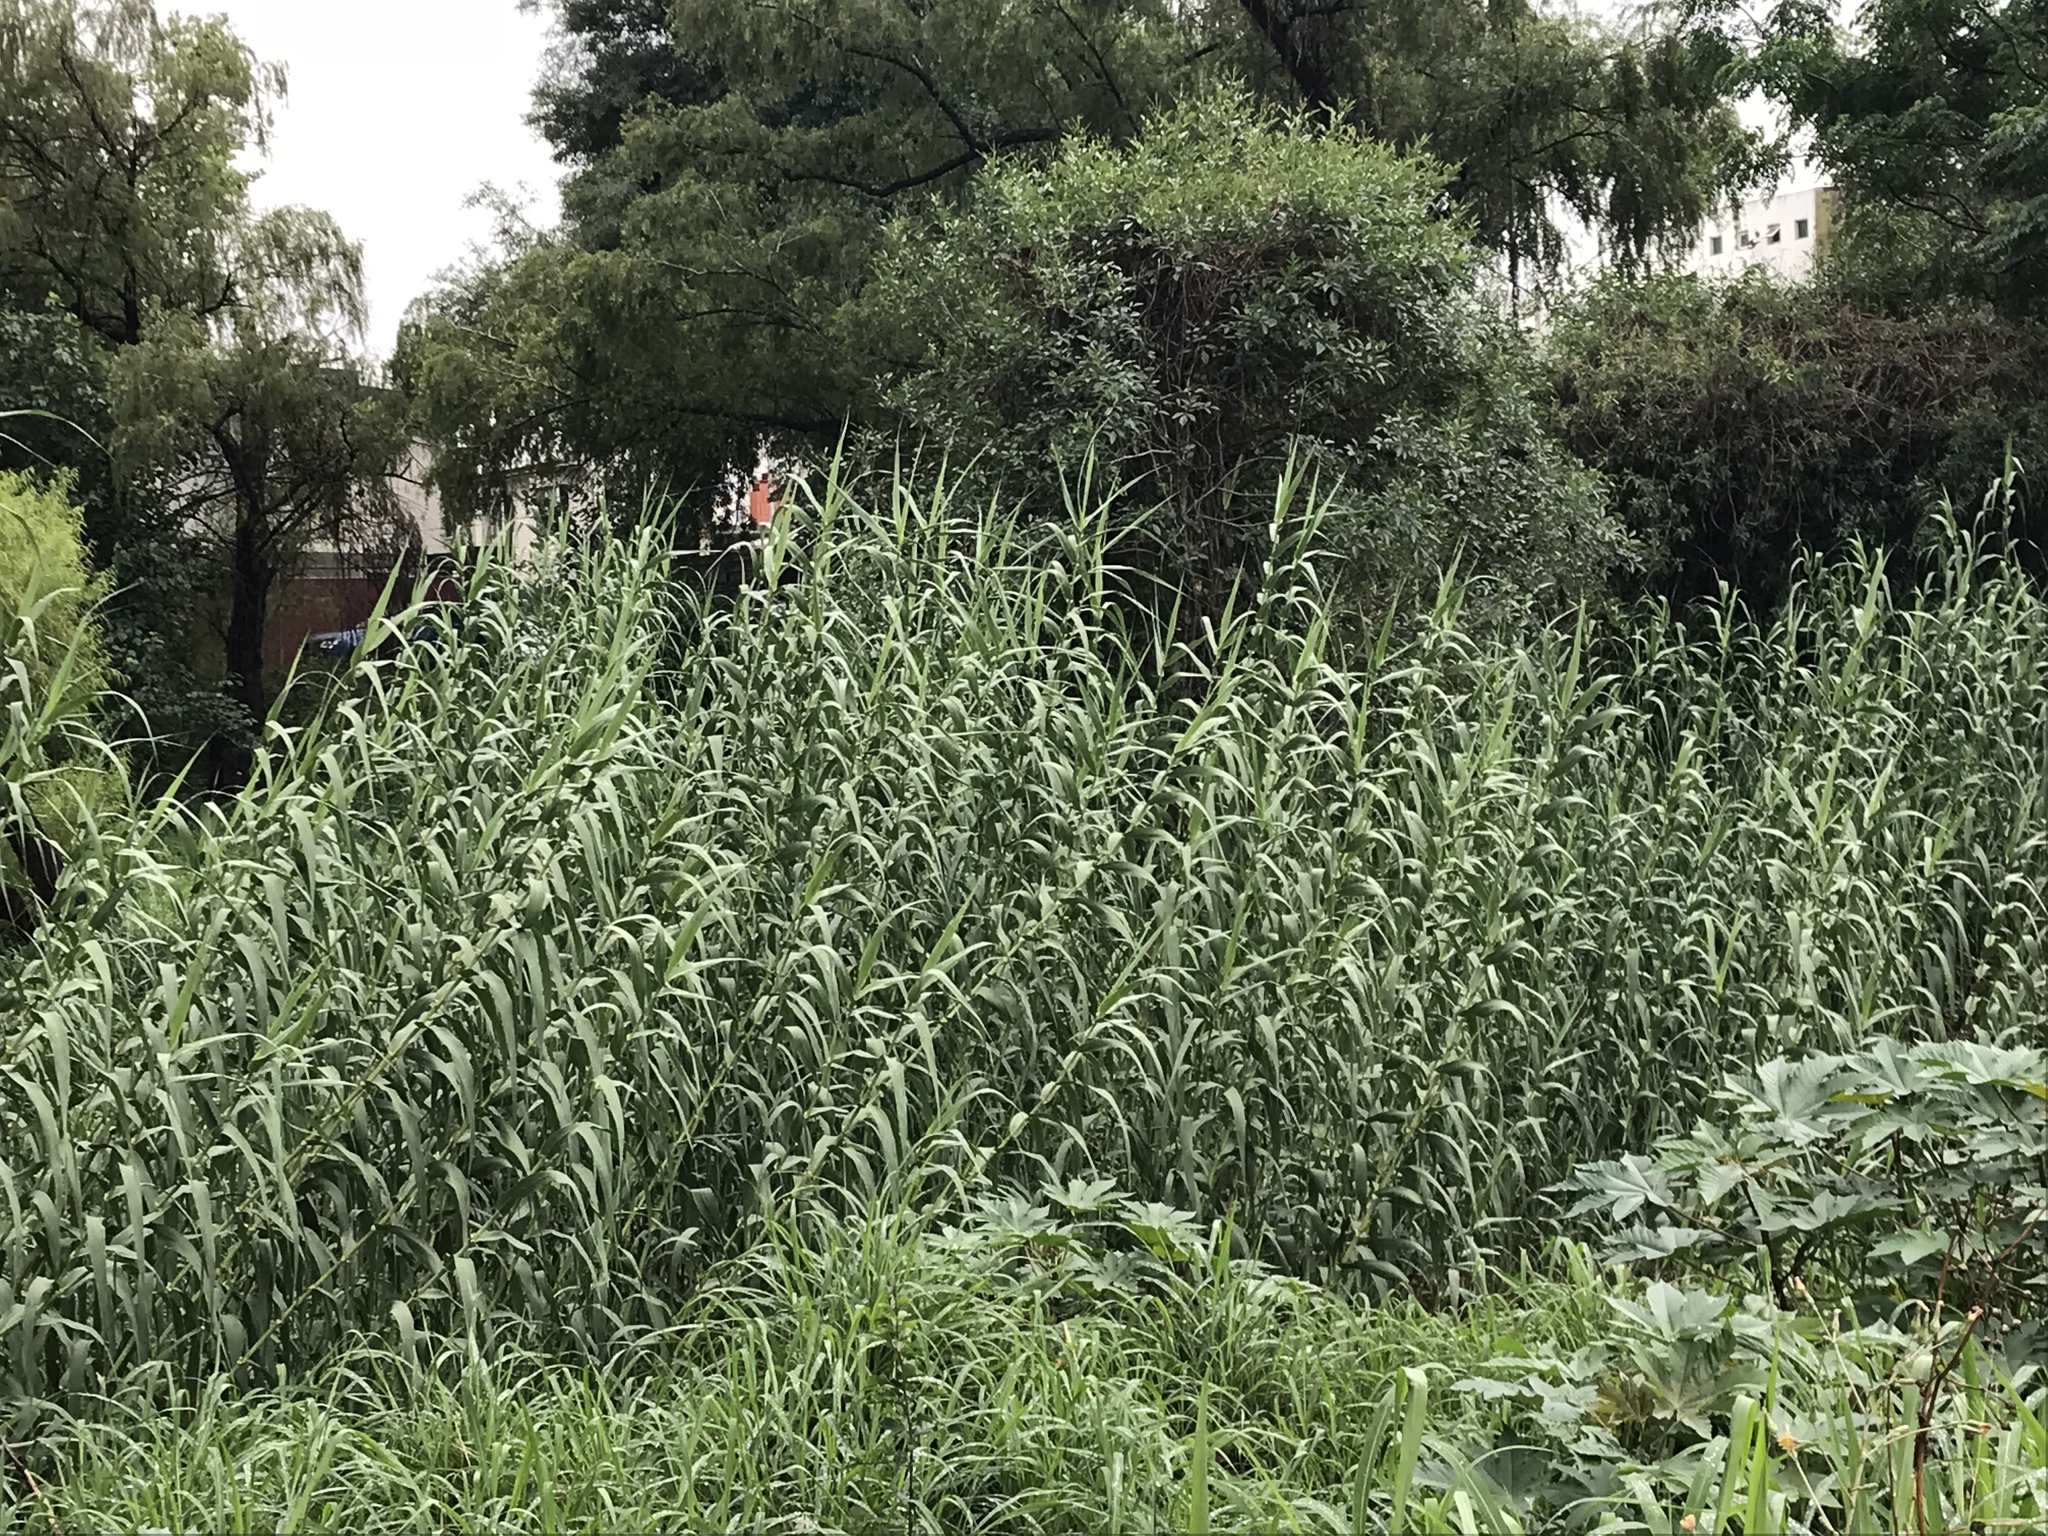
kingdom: Plantae
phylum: Tracheophyta
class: Liliopsida
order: Poales
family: Poaceae
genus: Arundo
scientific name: Arundo donax
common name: Giant reed
